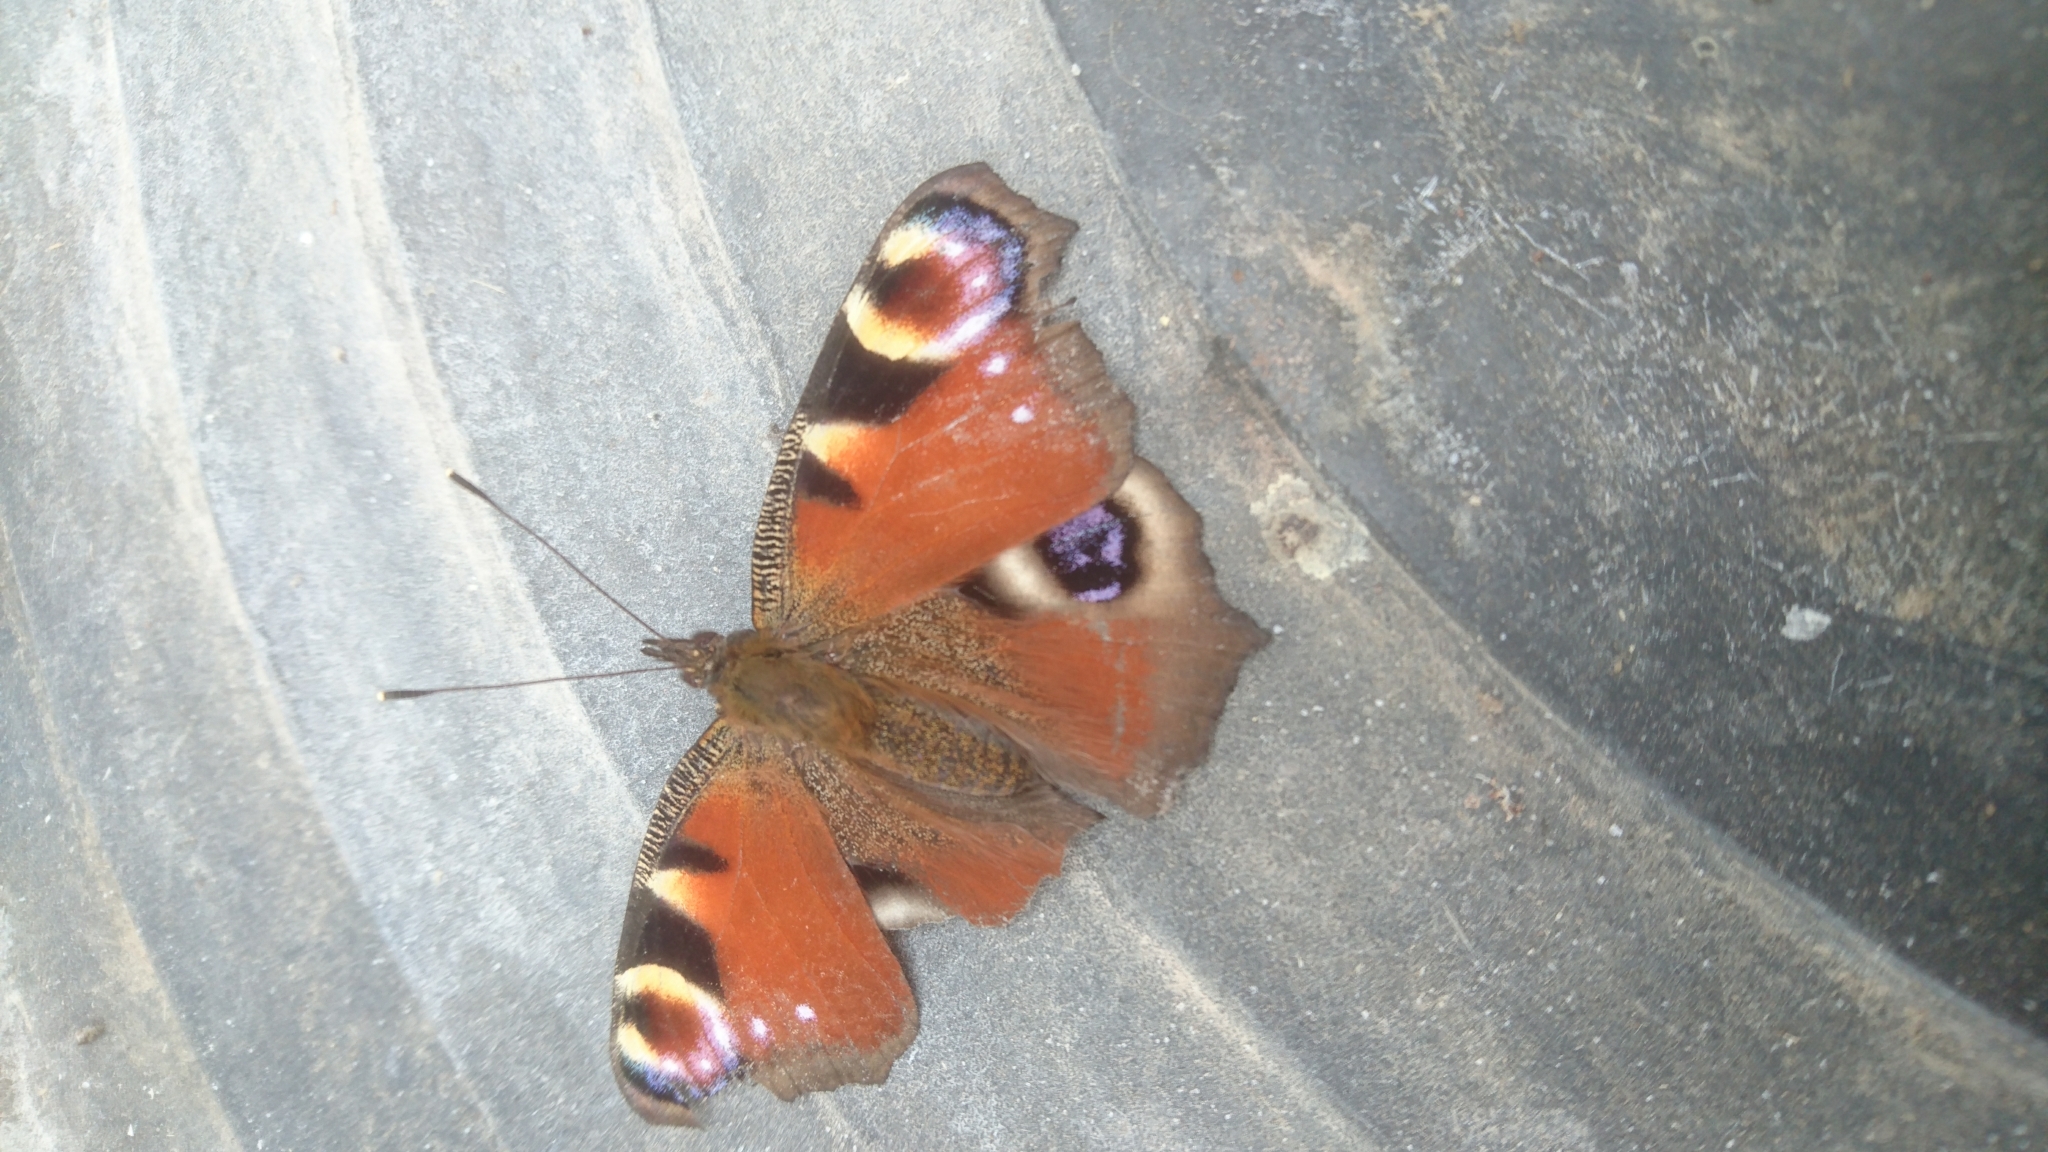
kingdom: Animalia
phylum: Arthropoda
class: Insecta
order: Lepidoptera
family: Nymphalidae
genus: Aglais
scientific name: Aglais io
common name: Peacock
